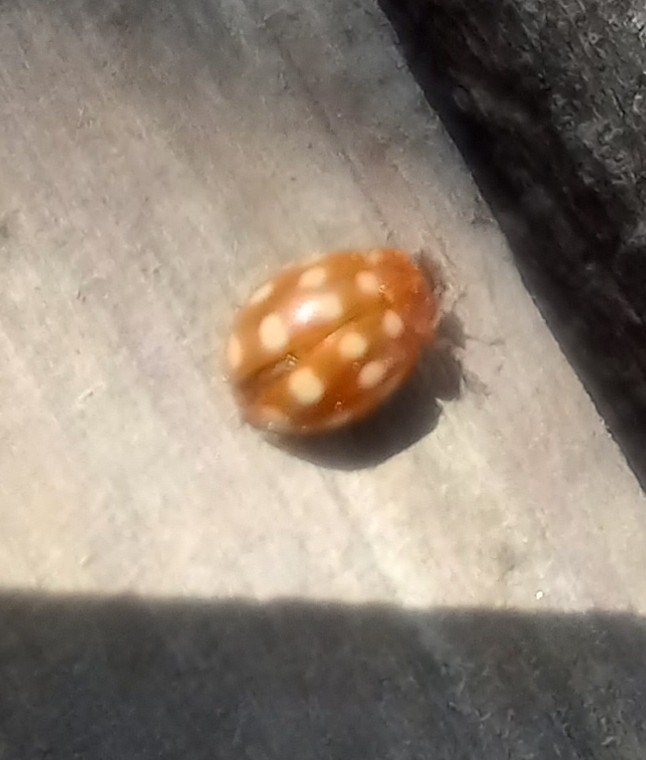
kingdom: Animalia
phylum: Arthropoda
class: Insecta
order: Coleoptera
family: Coccinellidae
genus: Calvia
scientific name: Calvia quatuordecimguttata
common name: Cream-spot ladybird
